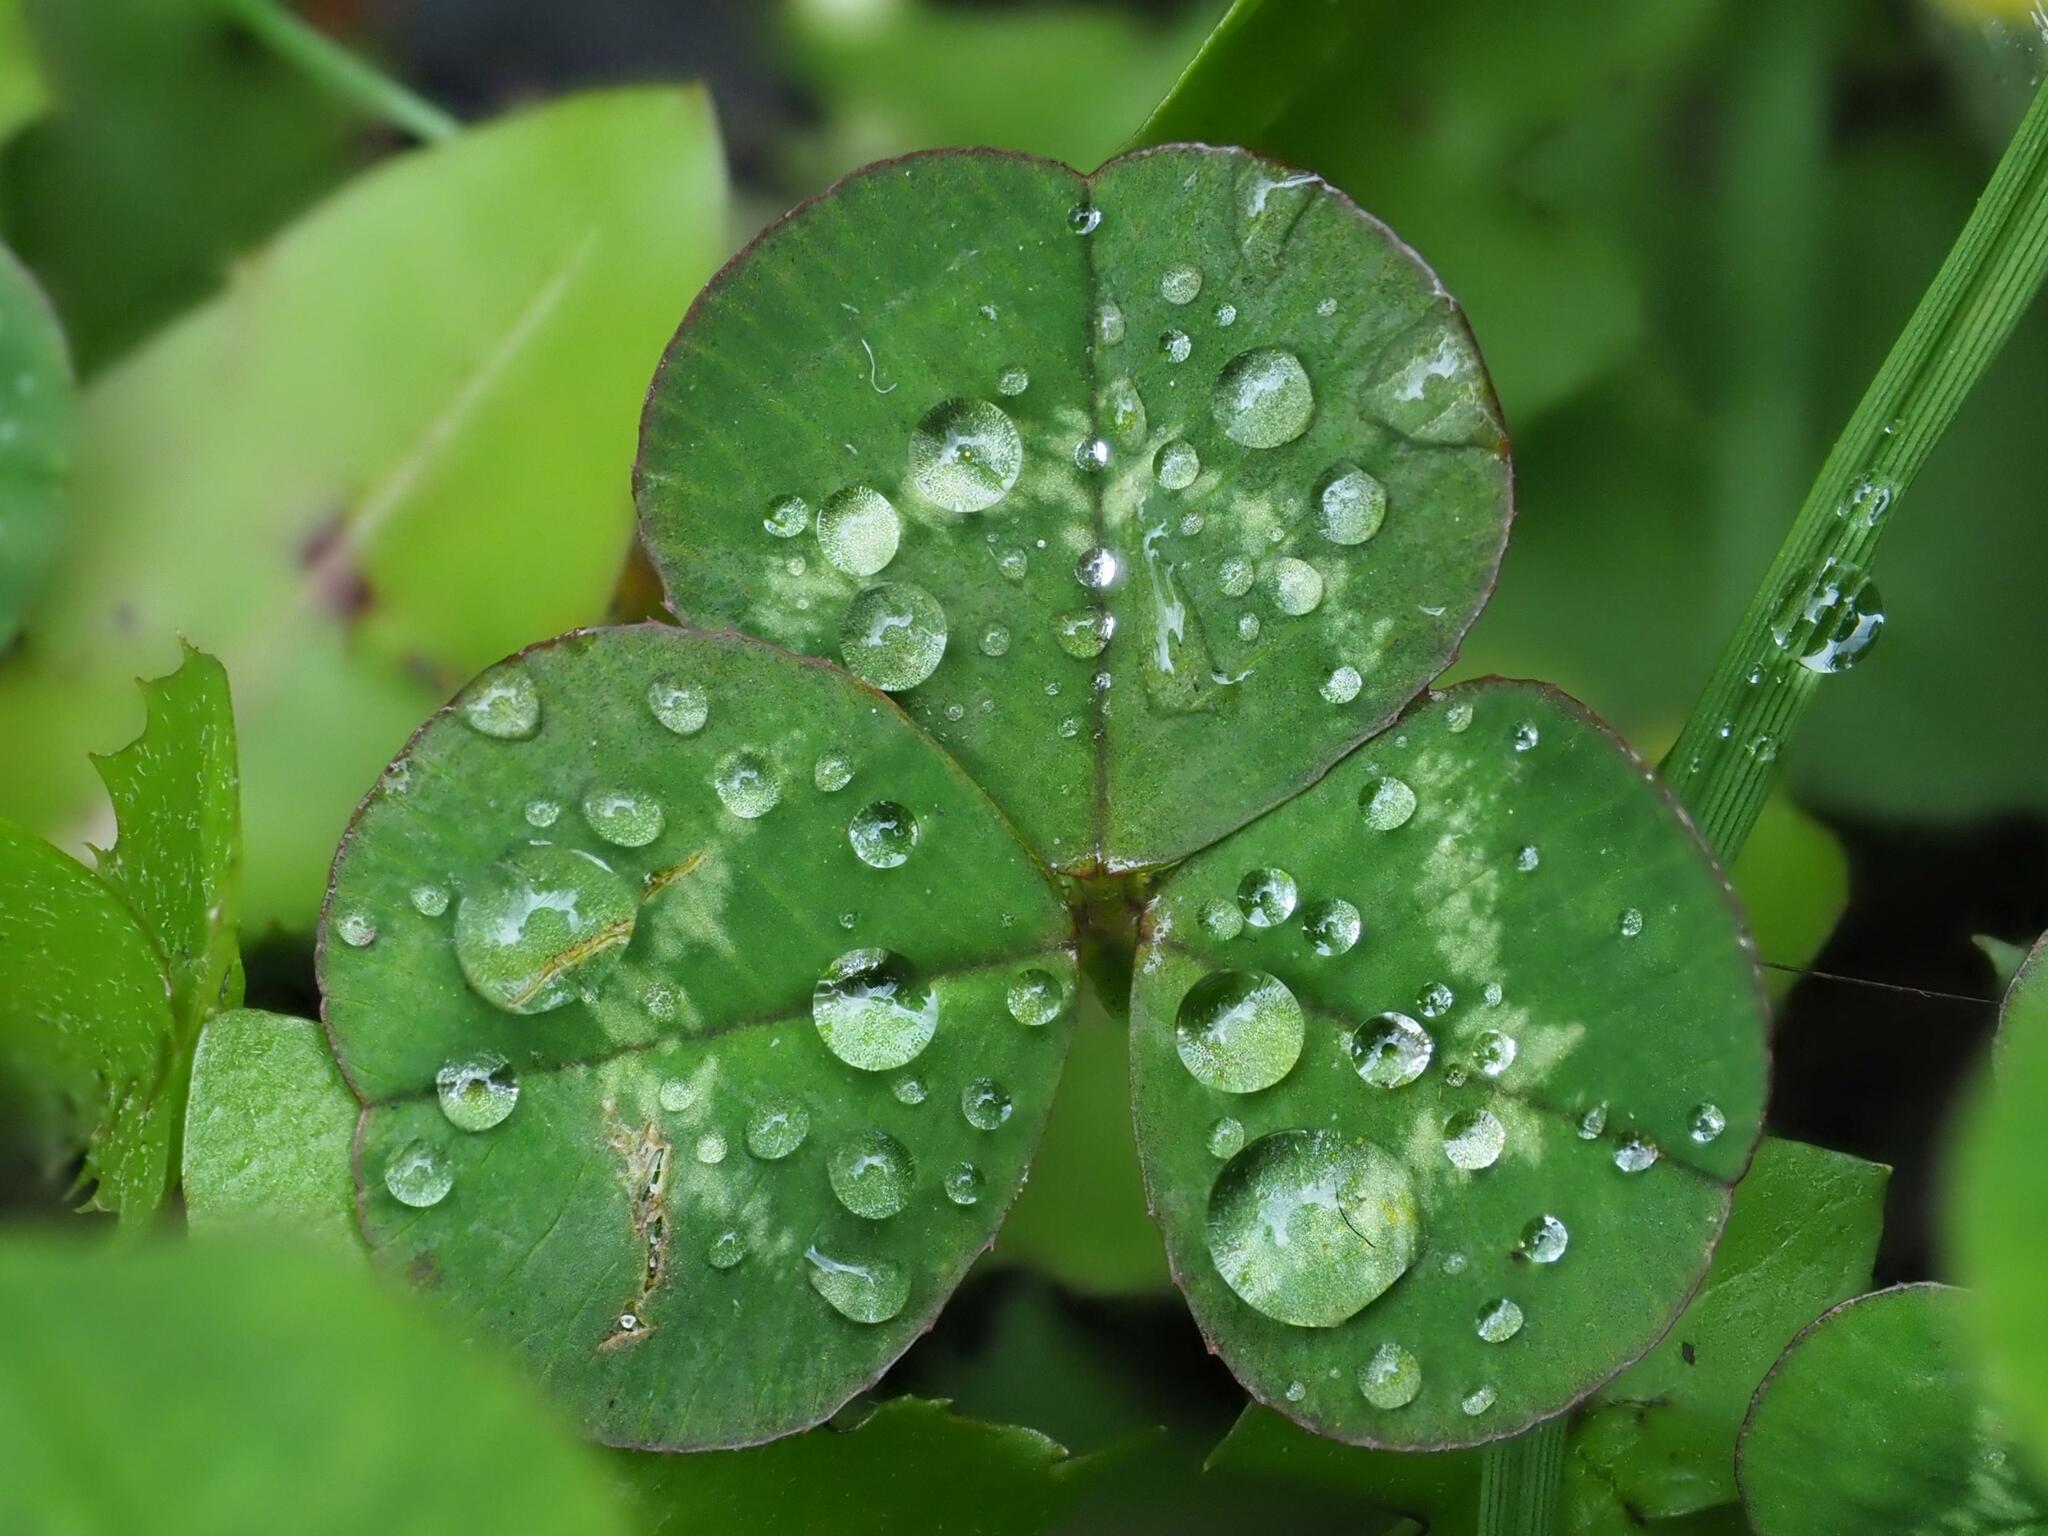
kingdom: Plantae
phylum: Tracheophyta
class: Magnoliopsida
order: Fabales
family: Fabaceae
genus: Trifolium
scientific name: Trifolium repens
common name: White clover
